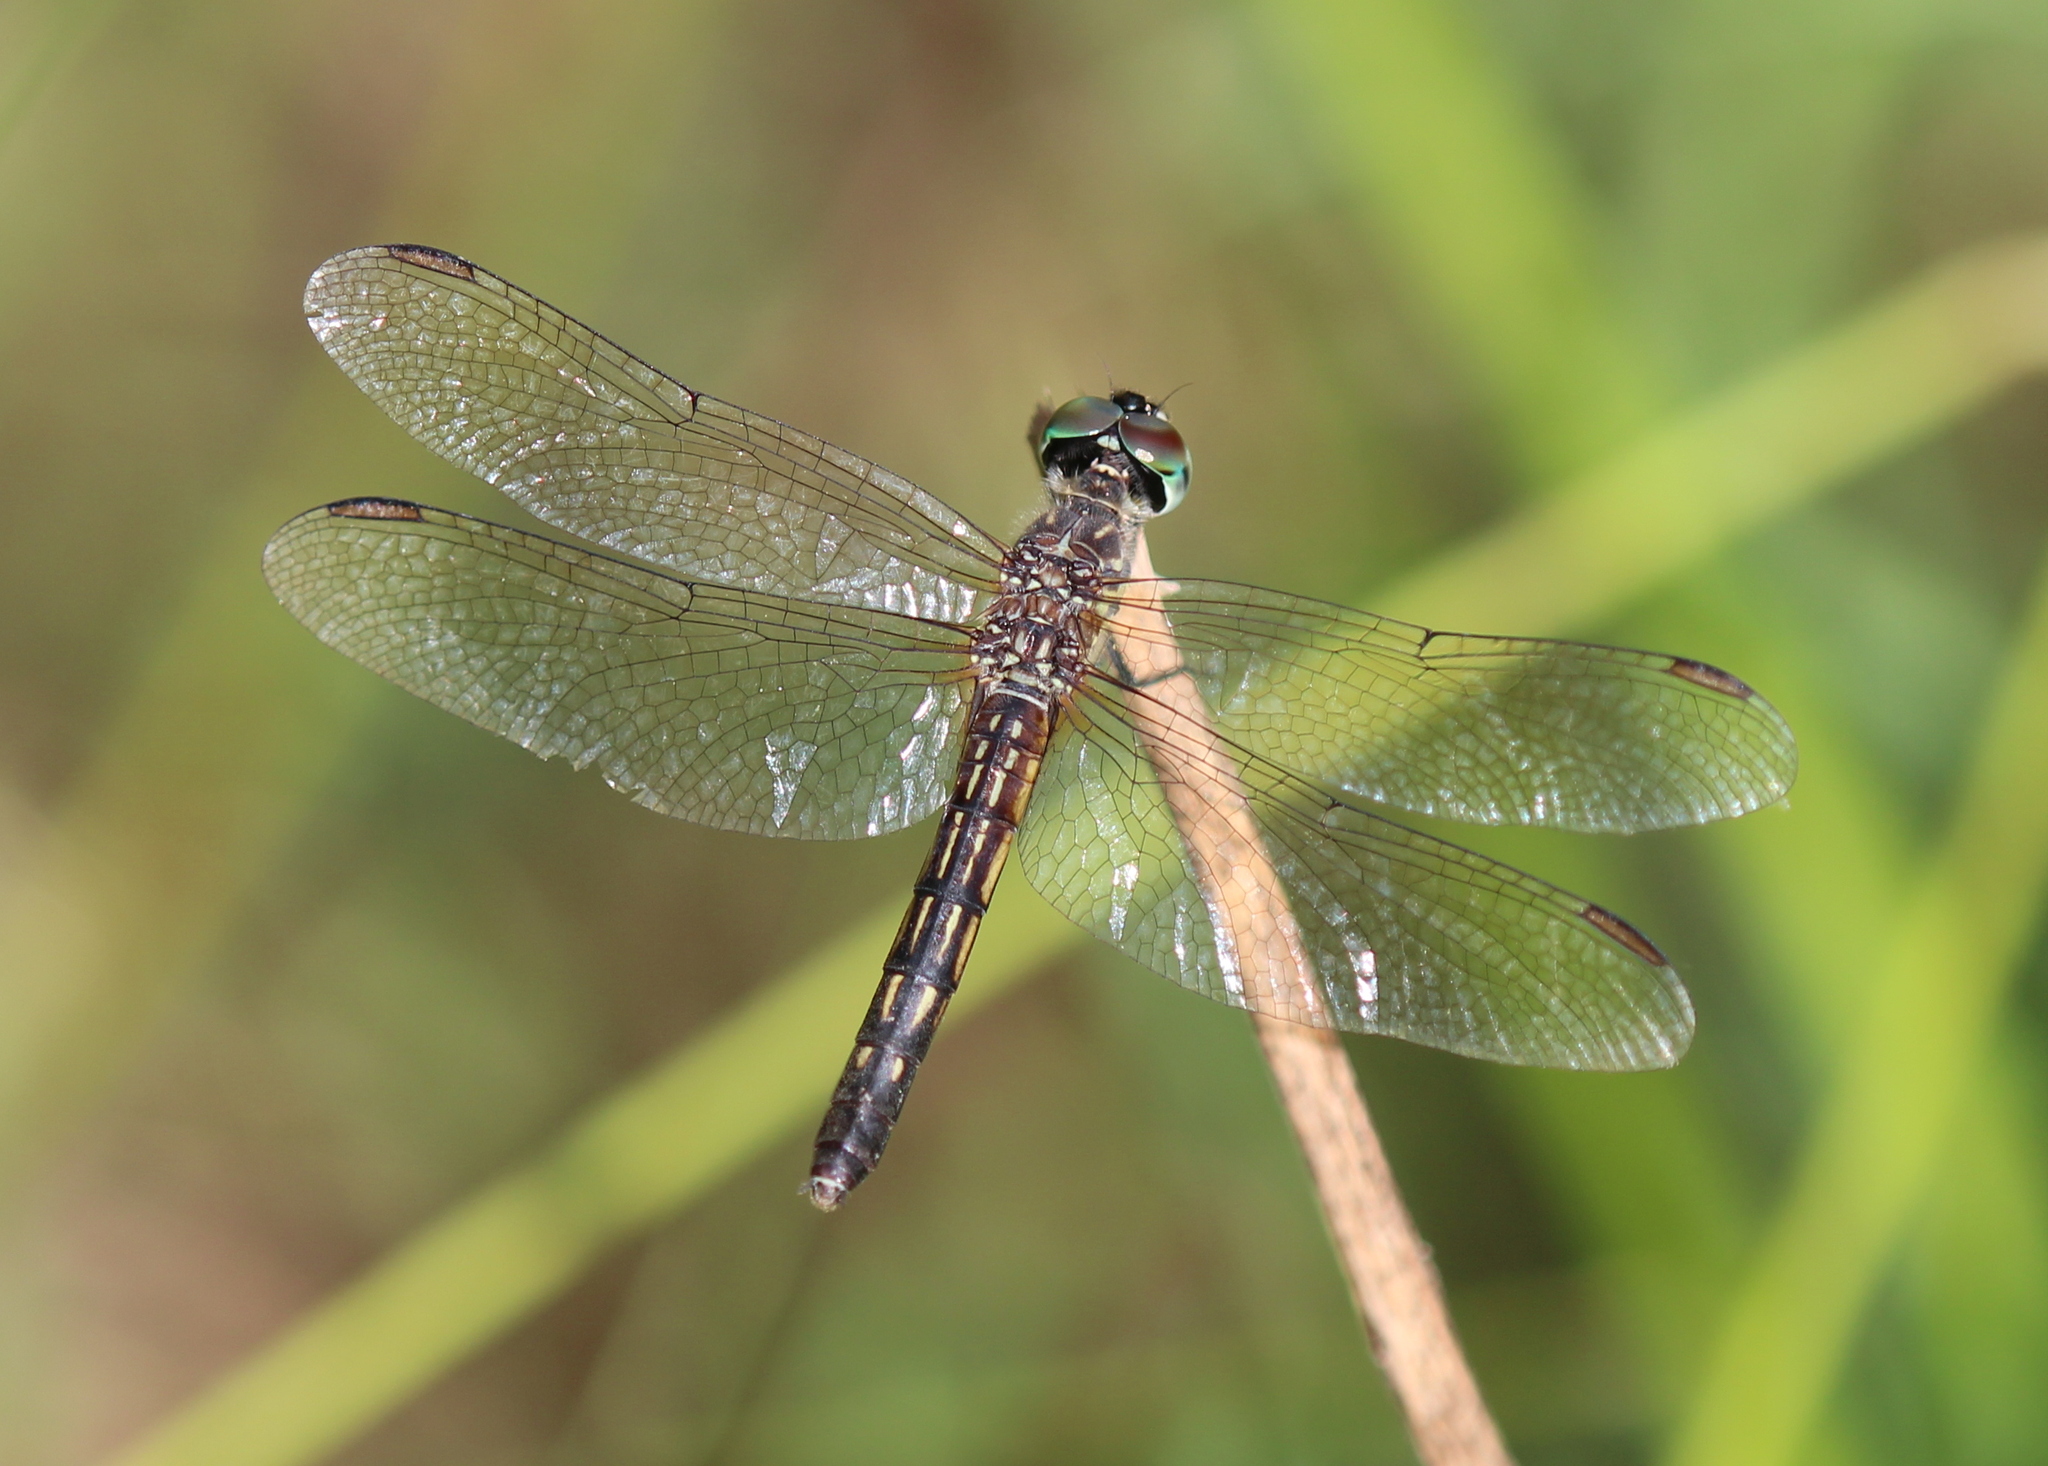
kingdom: Animalia
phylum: Arthropoda
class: Insecta
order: Odonata
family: Libellulidae
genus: Pachydiplax
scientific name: Pachydiplax longipennis
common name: Blue dasher
